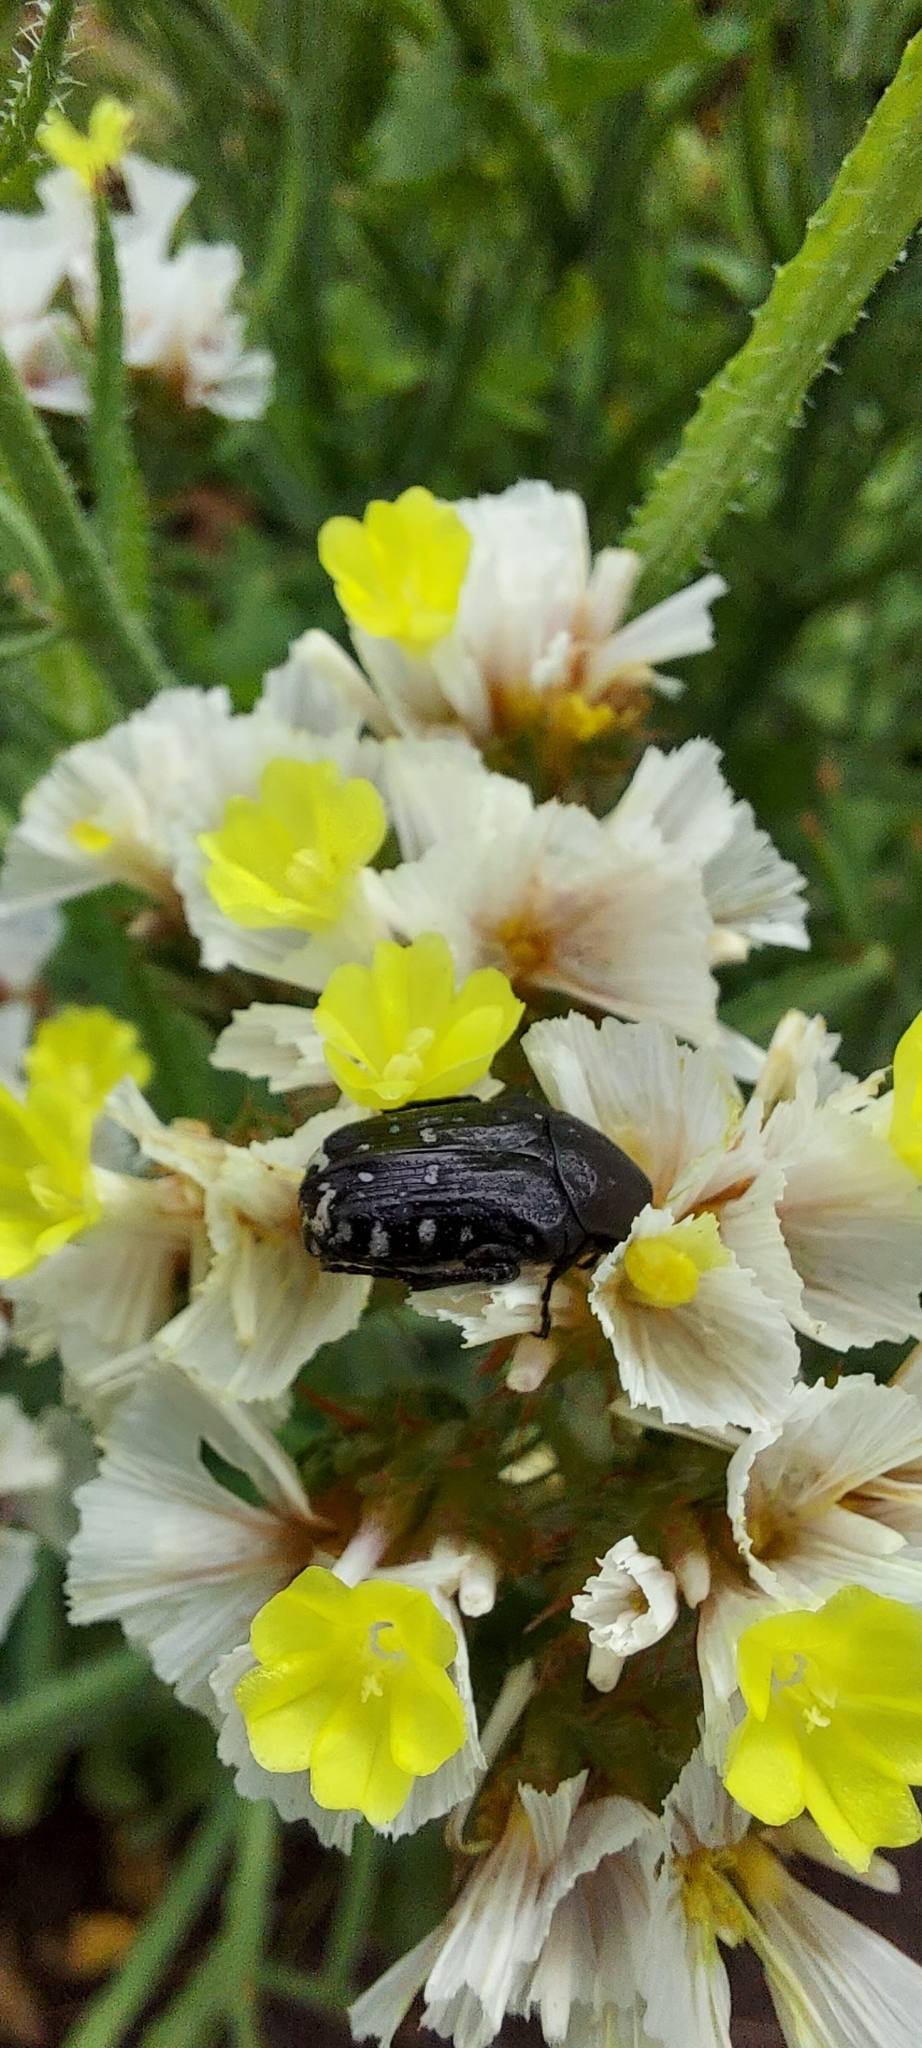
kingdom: Animalia
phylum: Arthropoda
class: Insecta
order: Coleoptera
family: Scarabaeidae
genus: Oxythyrea
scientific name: Oxythyrea funesta
